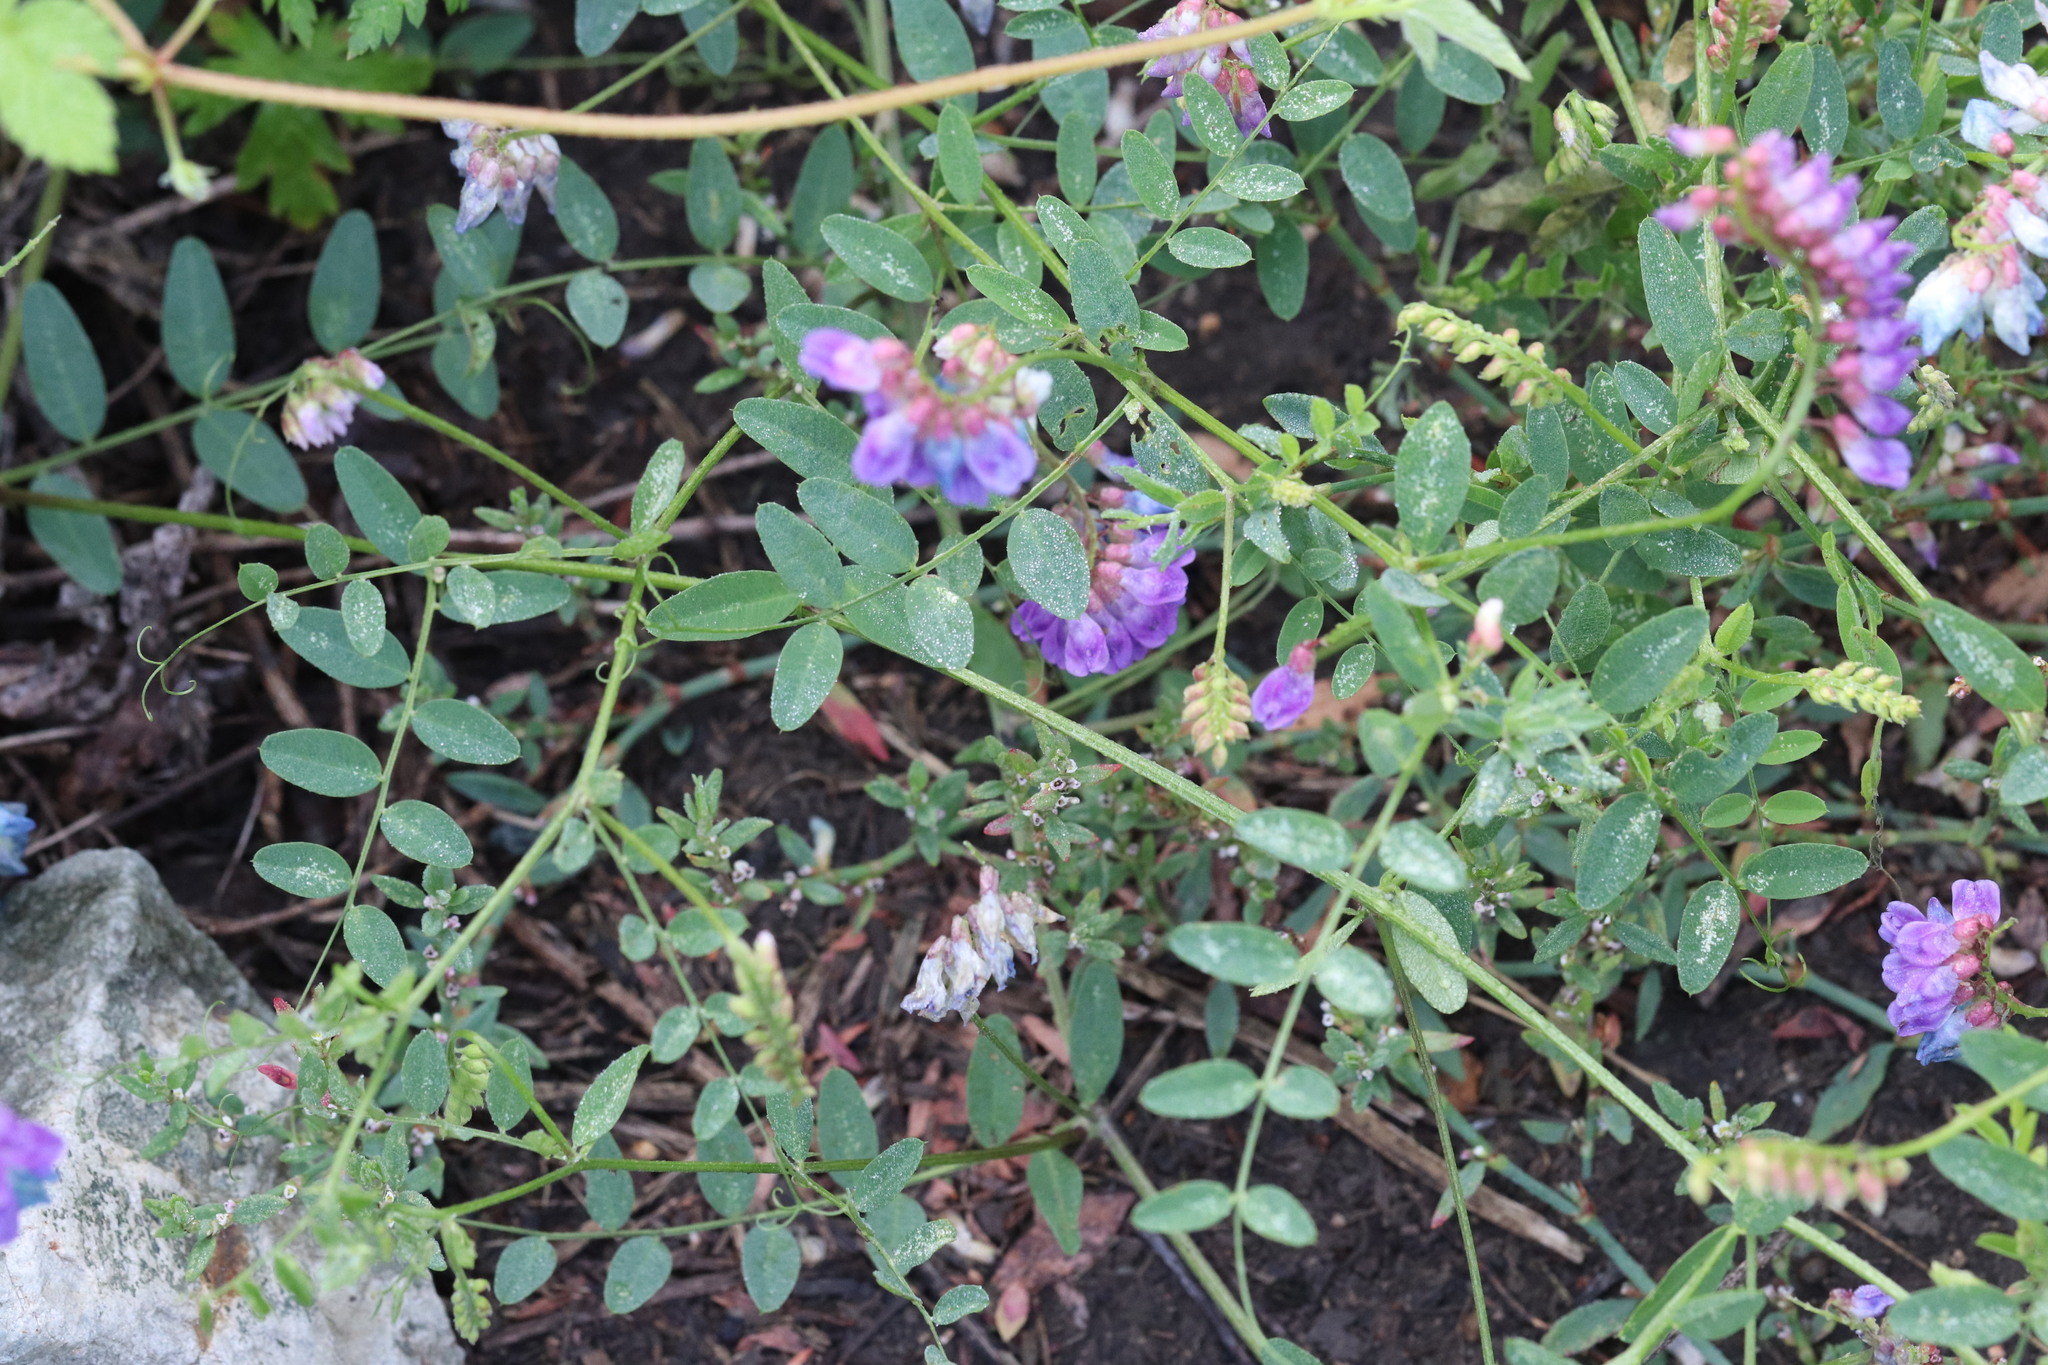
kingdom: Plantae
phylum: Tracheophyta
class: Magnoliopsida
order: Fabales
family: Fabaceae
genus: Vicia
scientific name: Vicia amurensis
